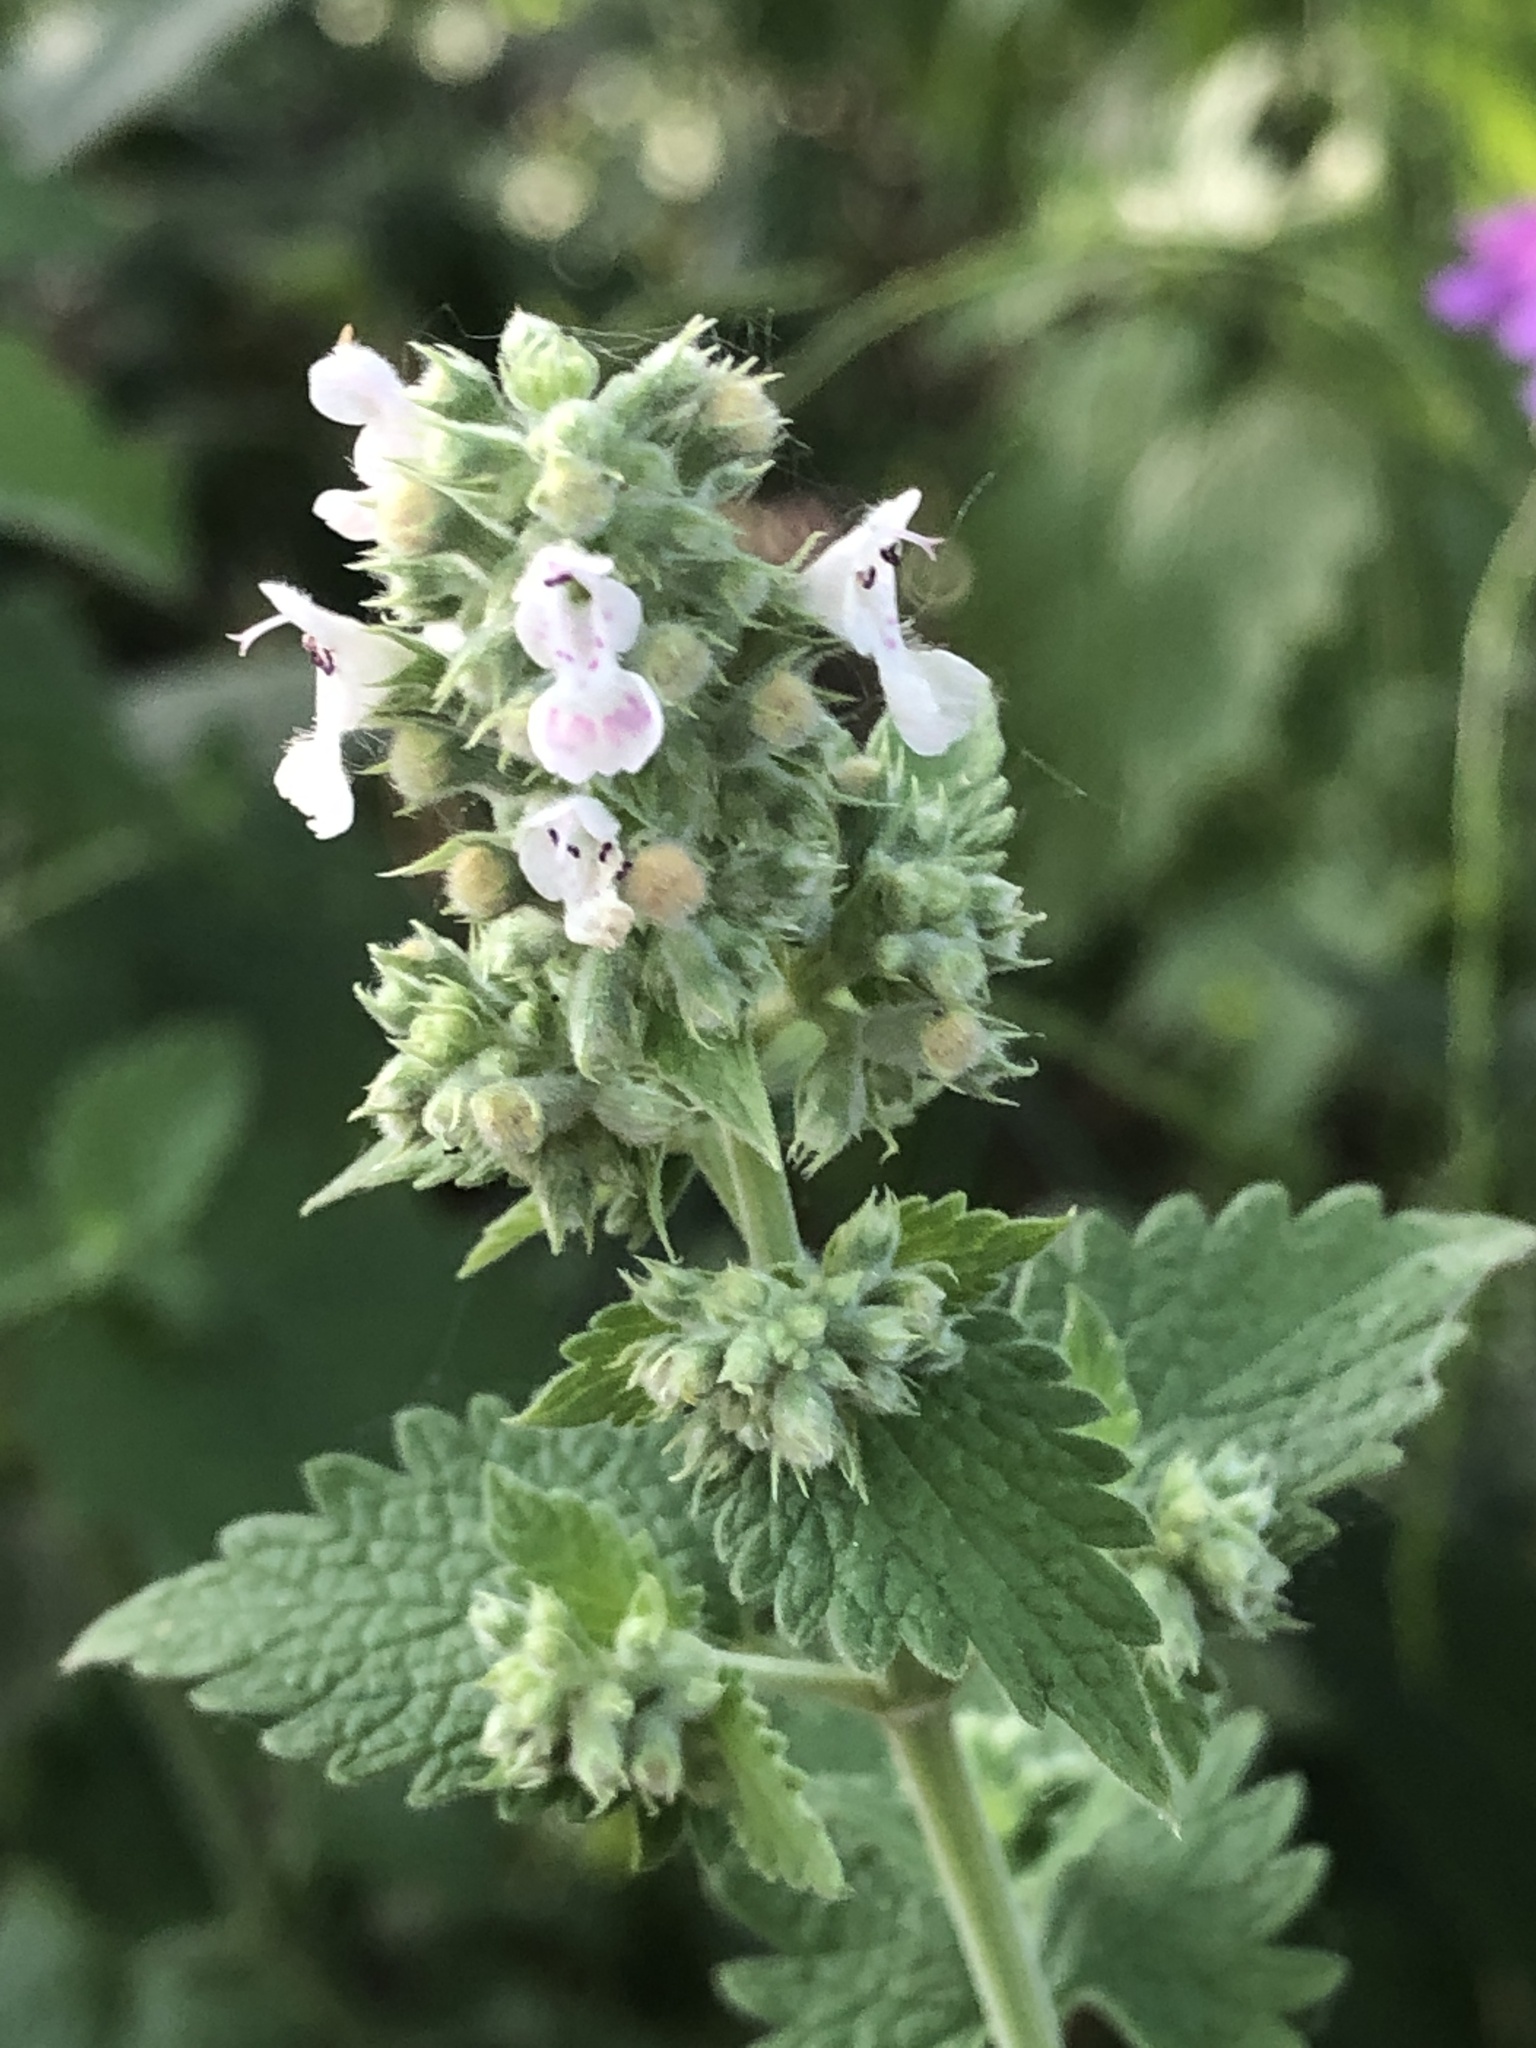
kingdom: Plantae
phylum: Tracheophyta
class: Magnoliopsida
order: Lamiales
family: Lamiaceae
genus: Nepeta
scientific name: Nepeta cataria
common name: Catnip
